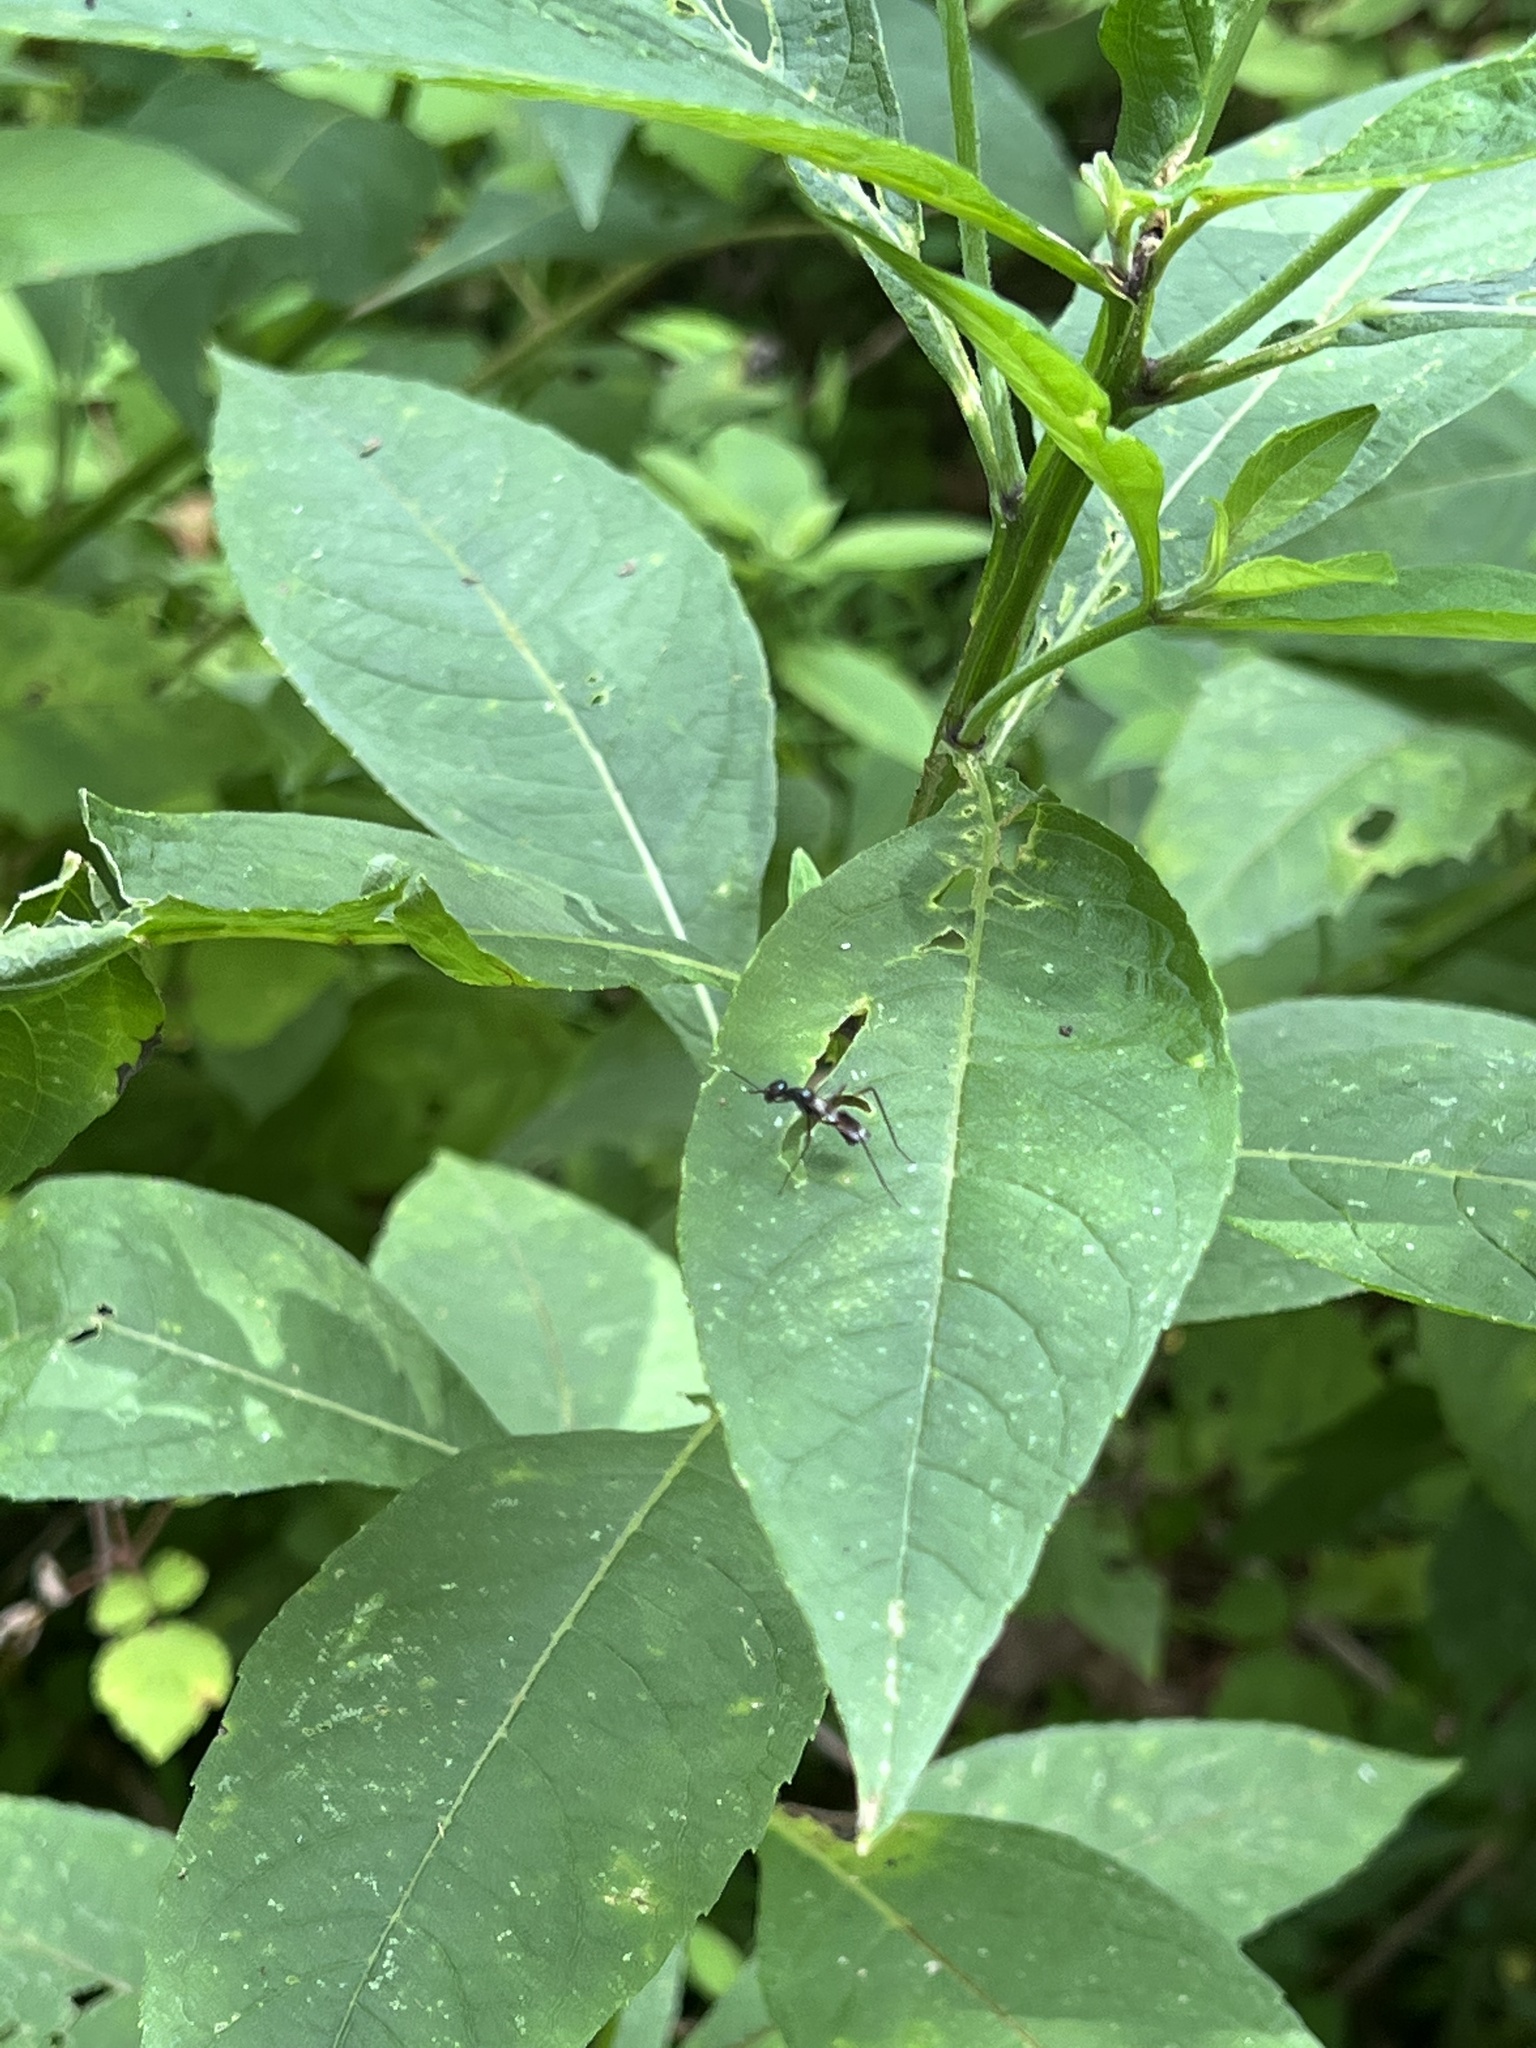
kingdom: Animalia
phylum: Arthropoda
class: Insecta
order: Diptera
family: Micropezidae
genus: Taeniaptera
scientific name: Taeniaptera trivittata
